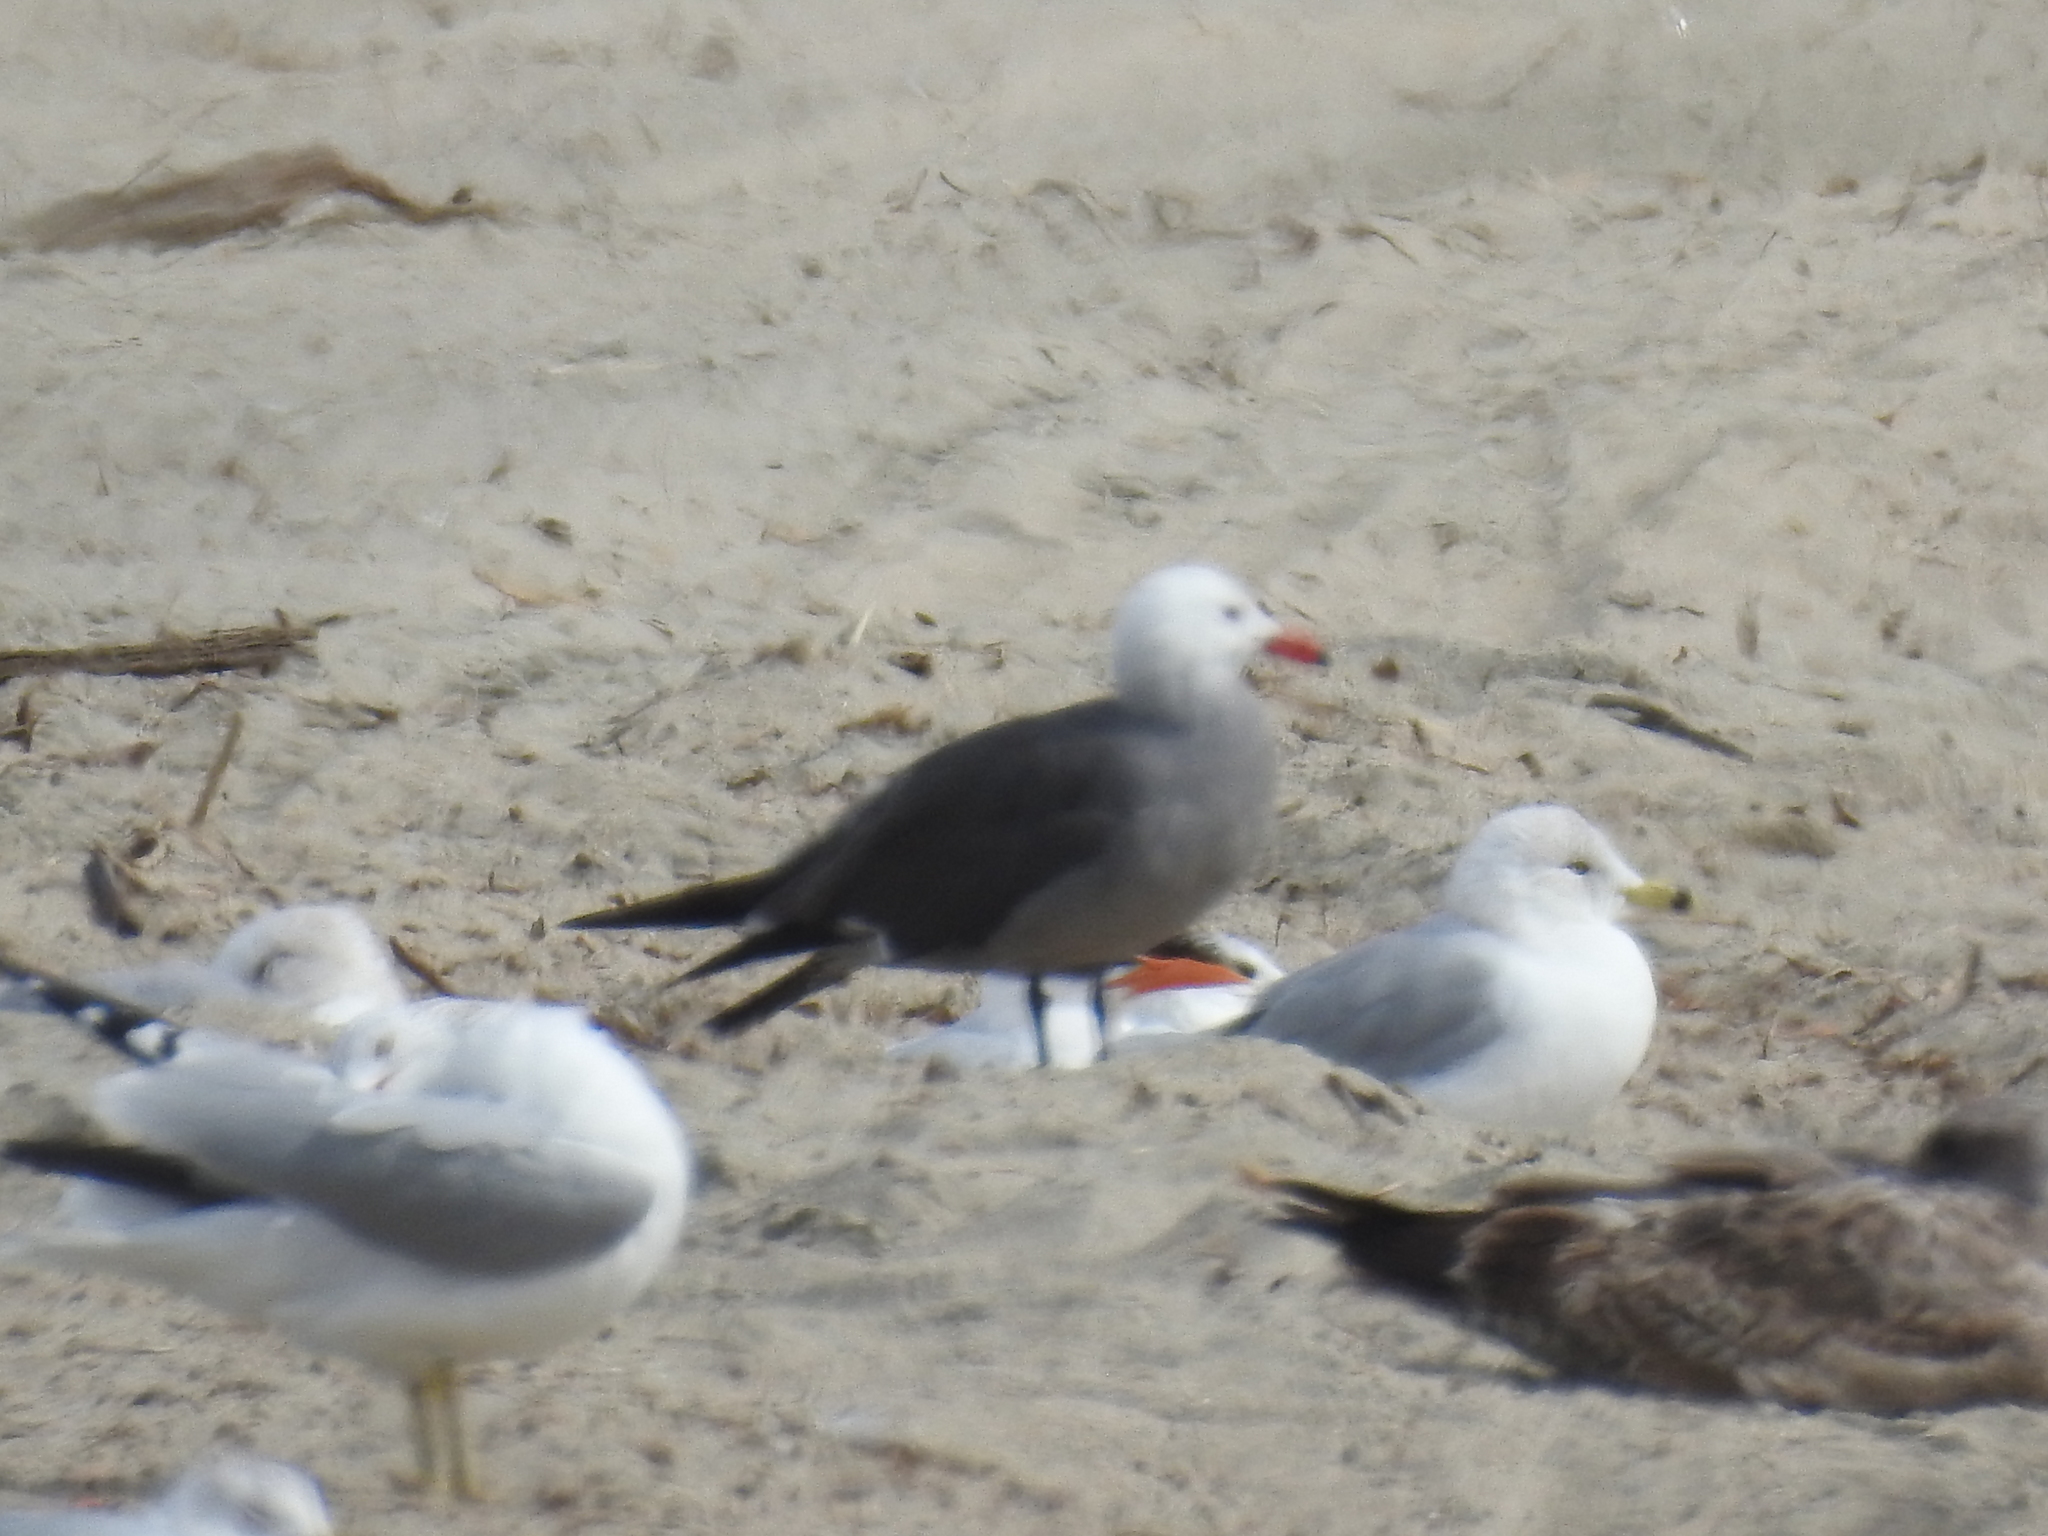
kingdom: Animalia
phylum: Chordata
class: Aves
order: Charadriiformes
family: Laridae
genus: Larus
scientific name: Larus heermanni
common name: Heermann's gull
